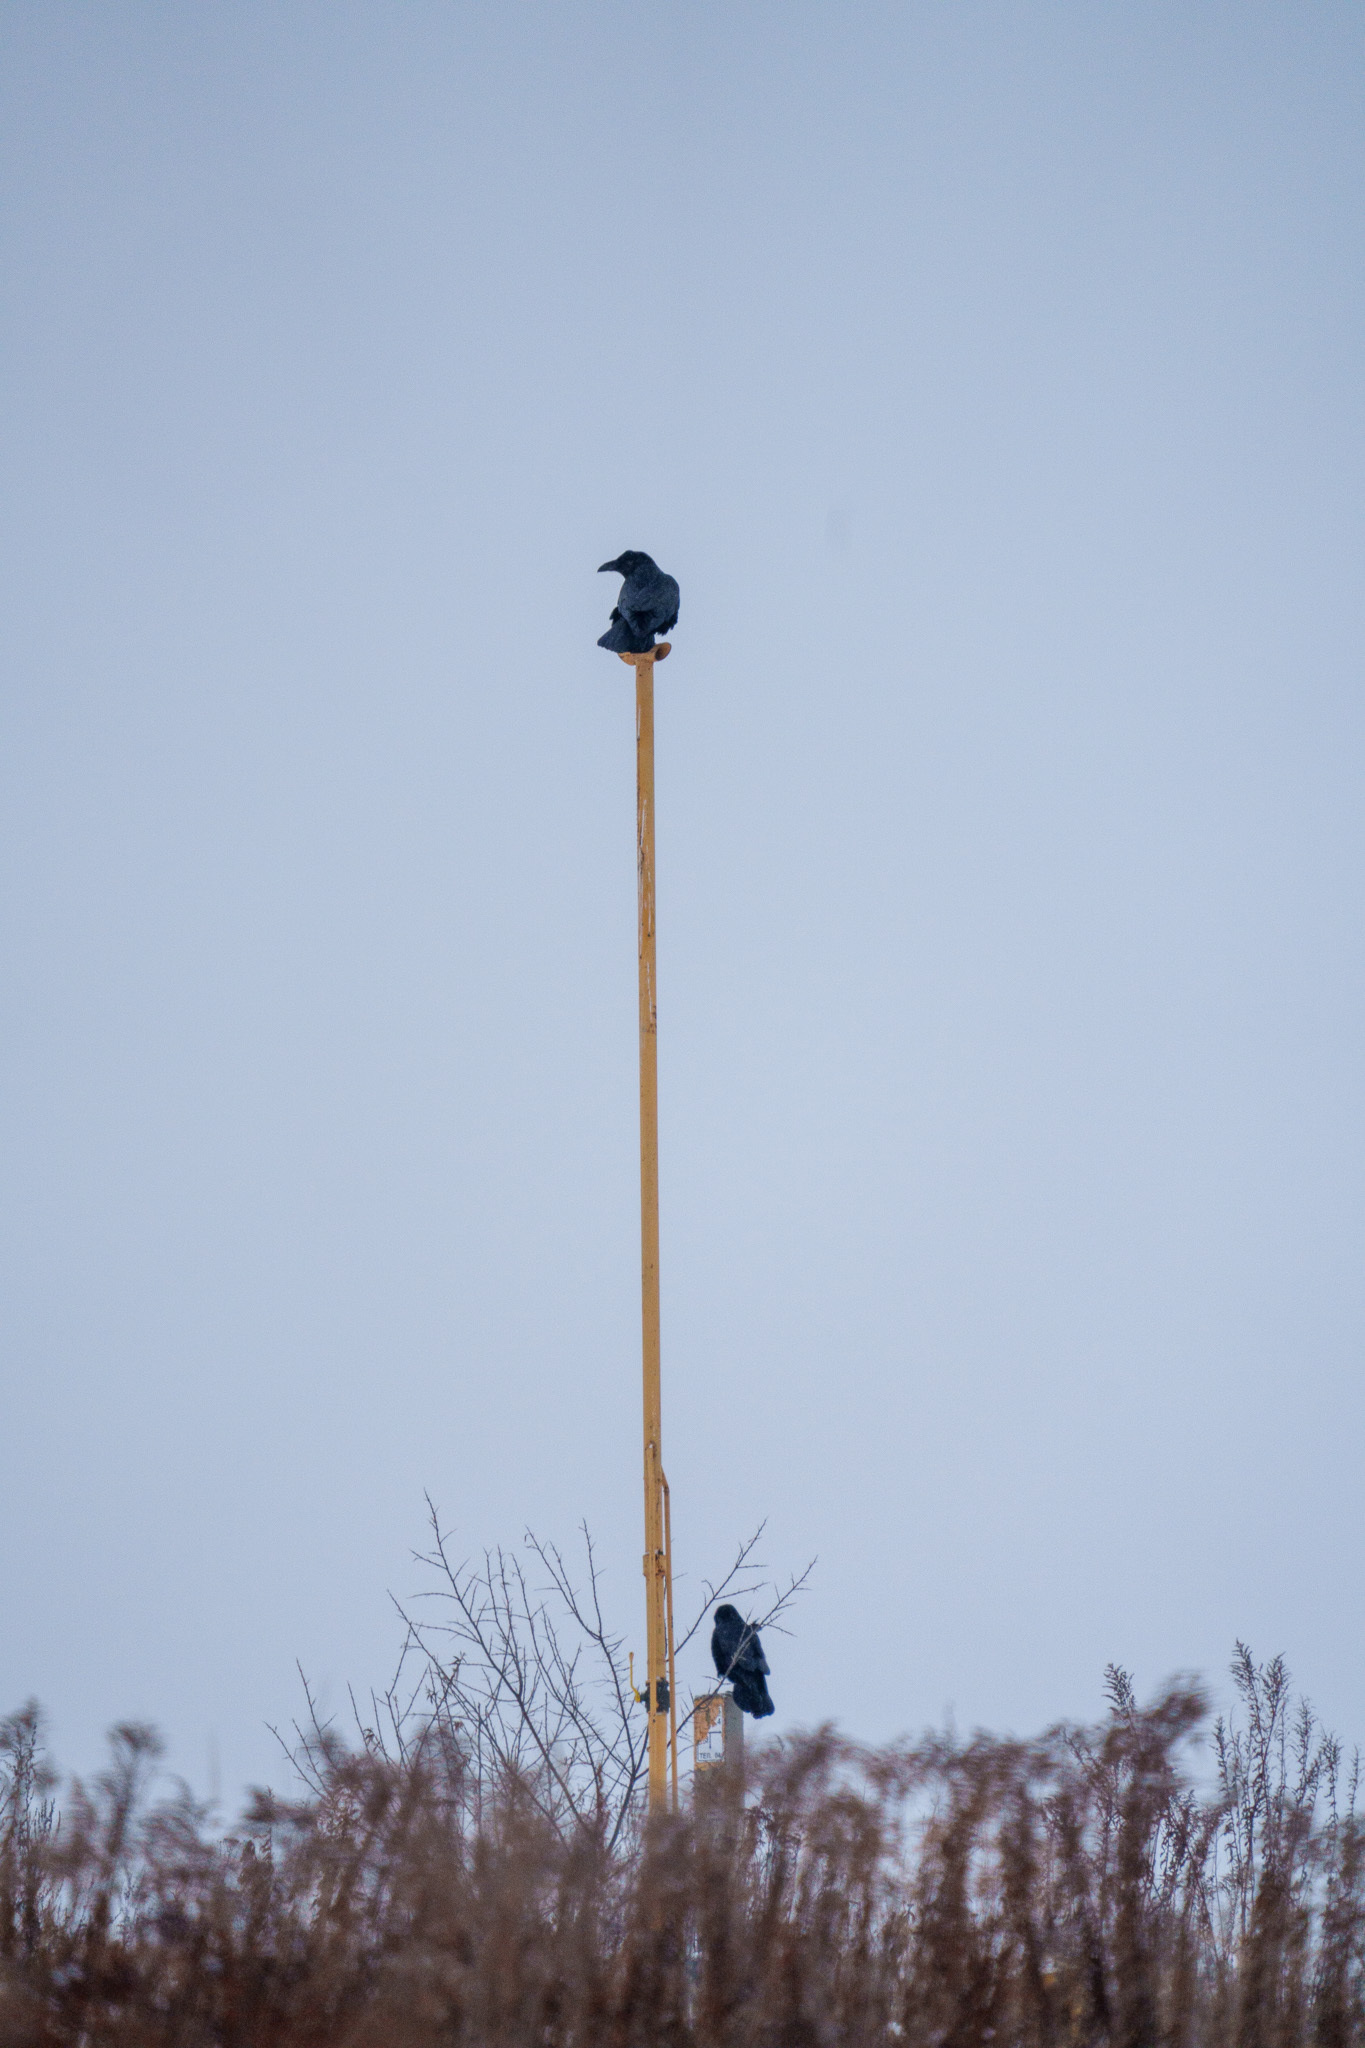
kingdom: Animalia
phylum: Chordata
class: Aves
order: Passeriformes
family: Corvidae
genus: Corvus
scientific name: Corvus corax
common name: Common raven
